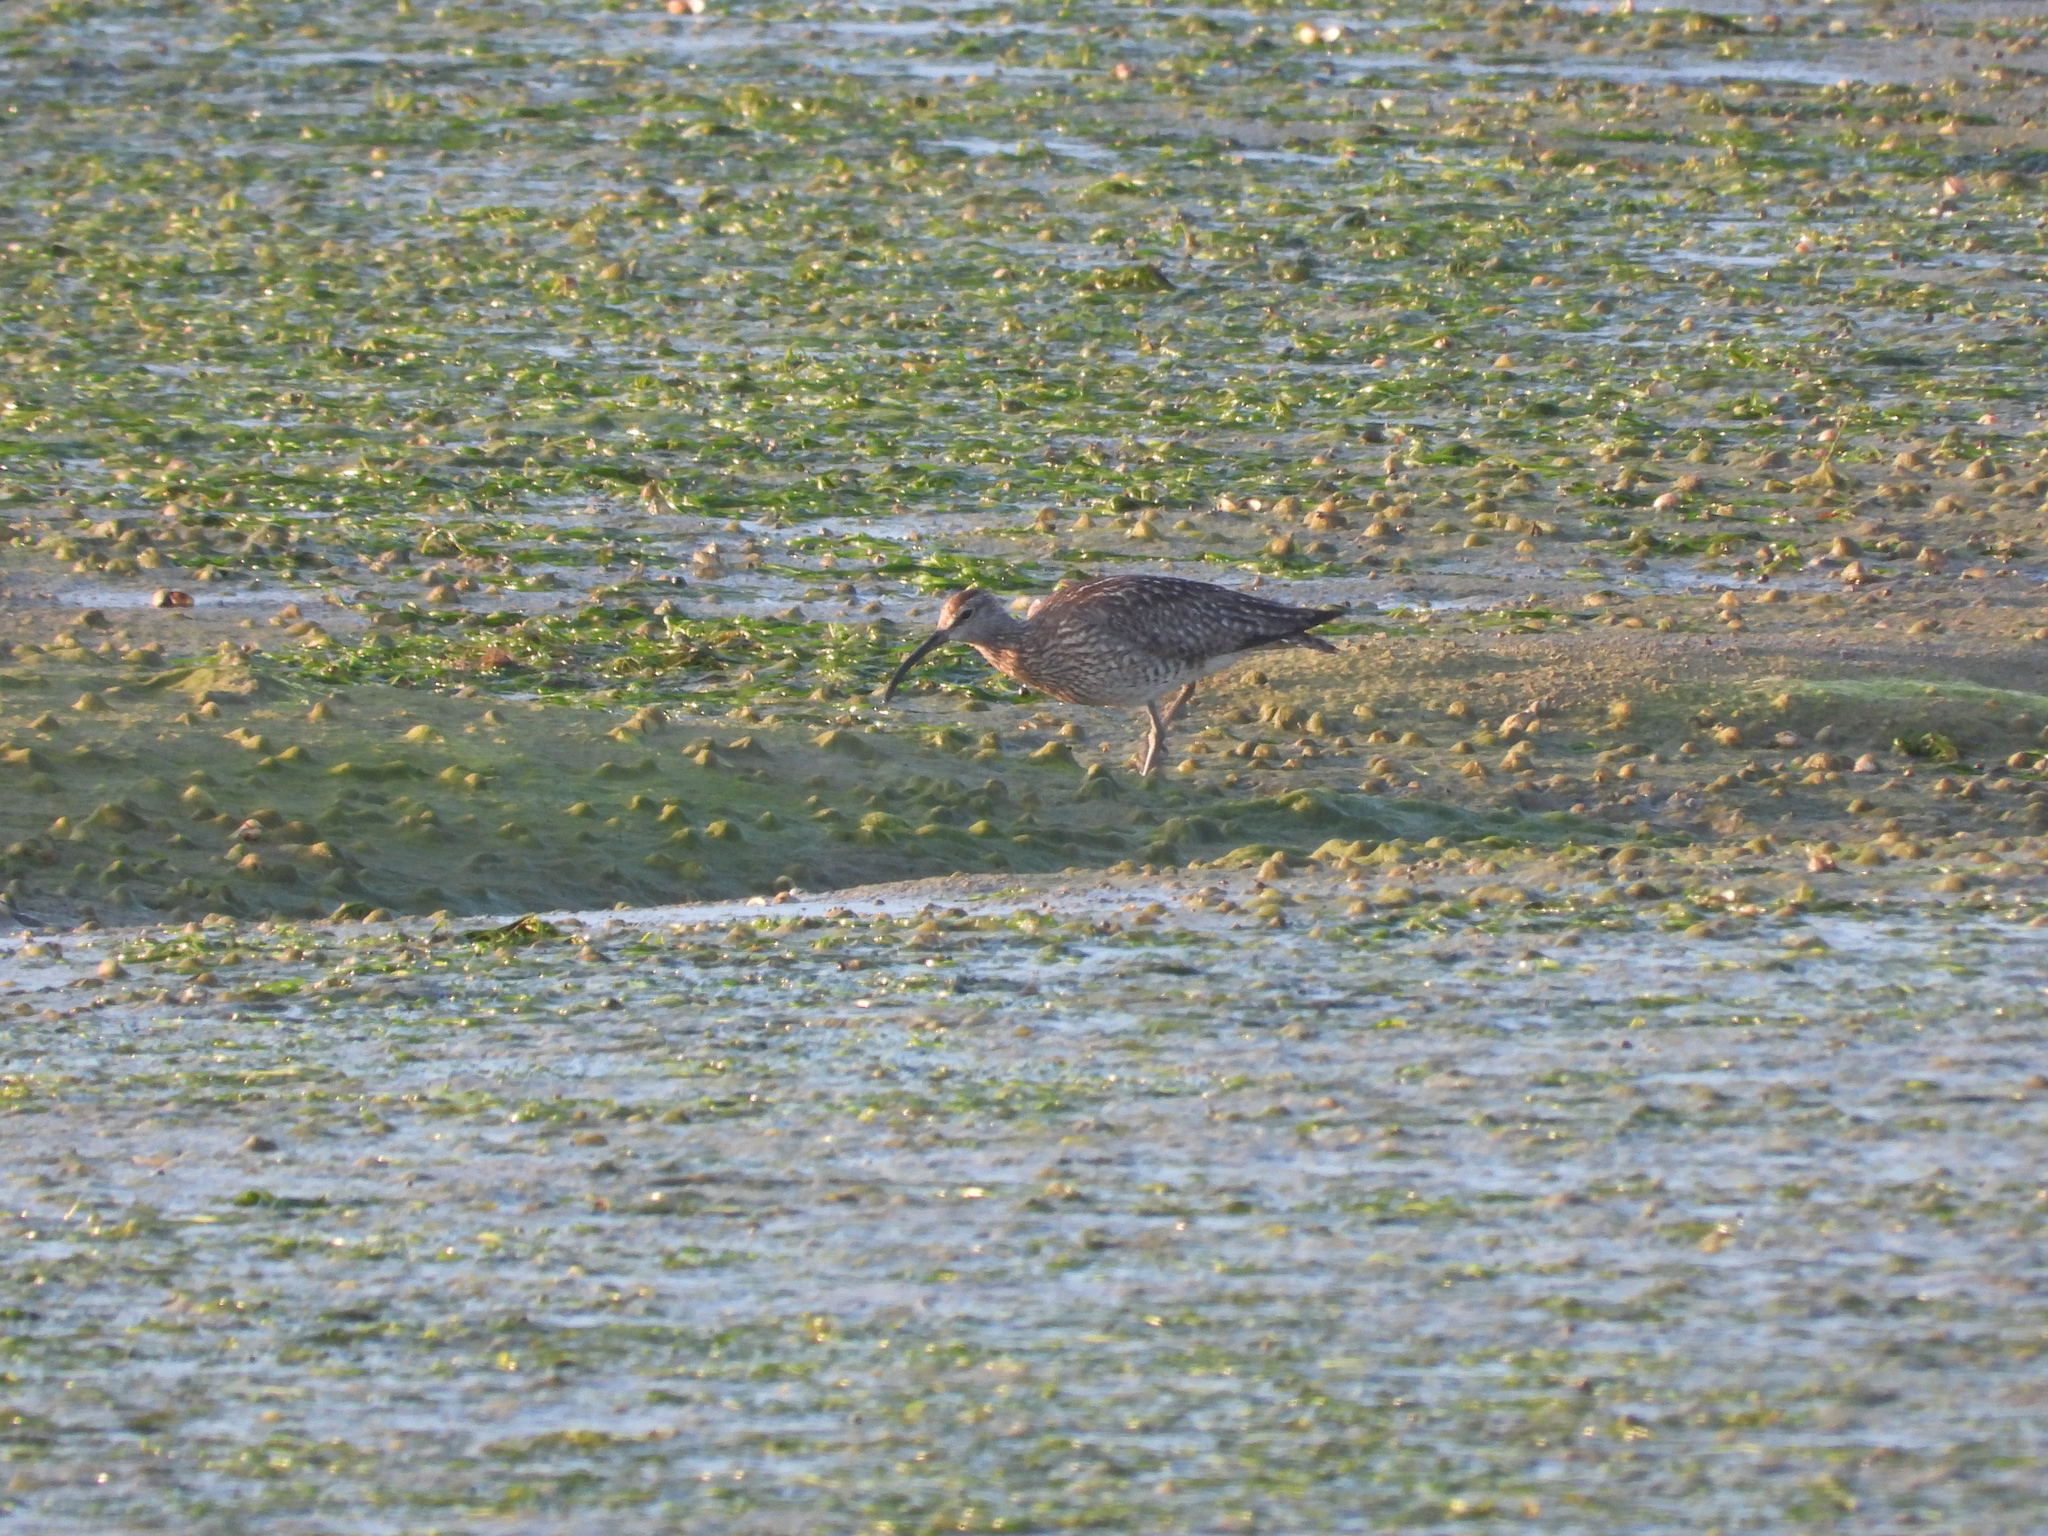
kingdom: Animalia
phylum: Chordata
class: Aves
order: Charadriiformes
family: Scolopacidae
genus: Numenius
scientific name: Numenius phaeopus
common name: Whimbrel
